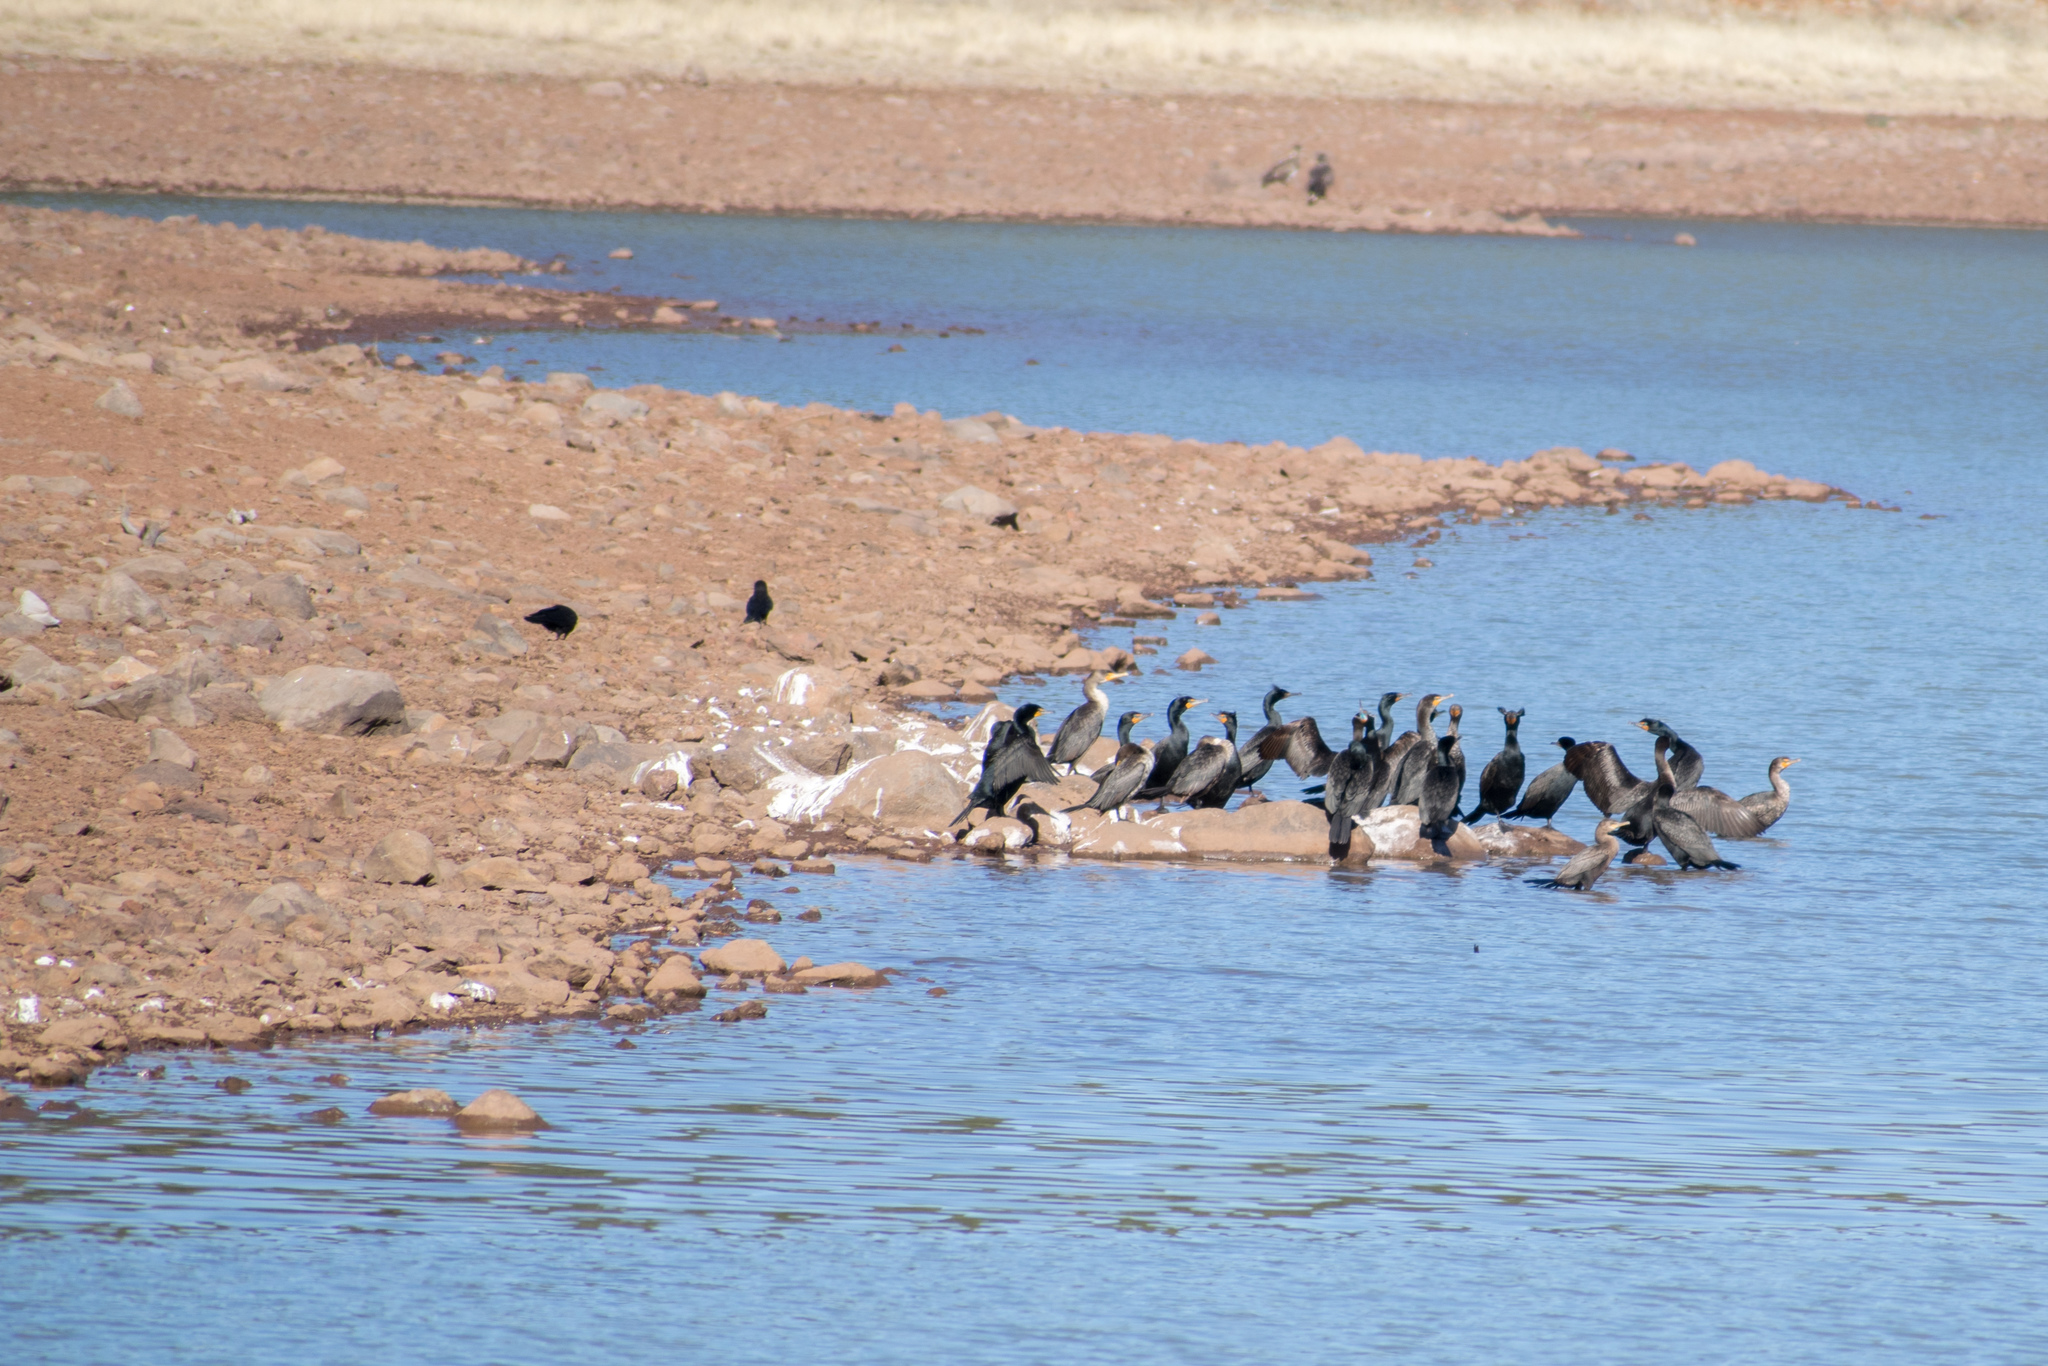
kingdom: Animalia
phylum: Chordata
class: Aves
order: Suliformes
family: Phalacrocoracidae
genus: Phalacrocorax
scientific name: Phalacrocorax auritus
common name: Double-crested cormorant
